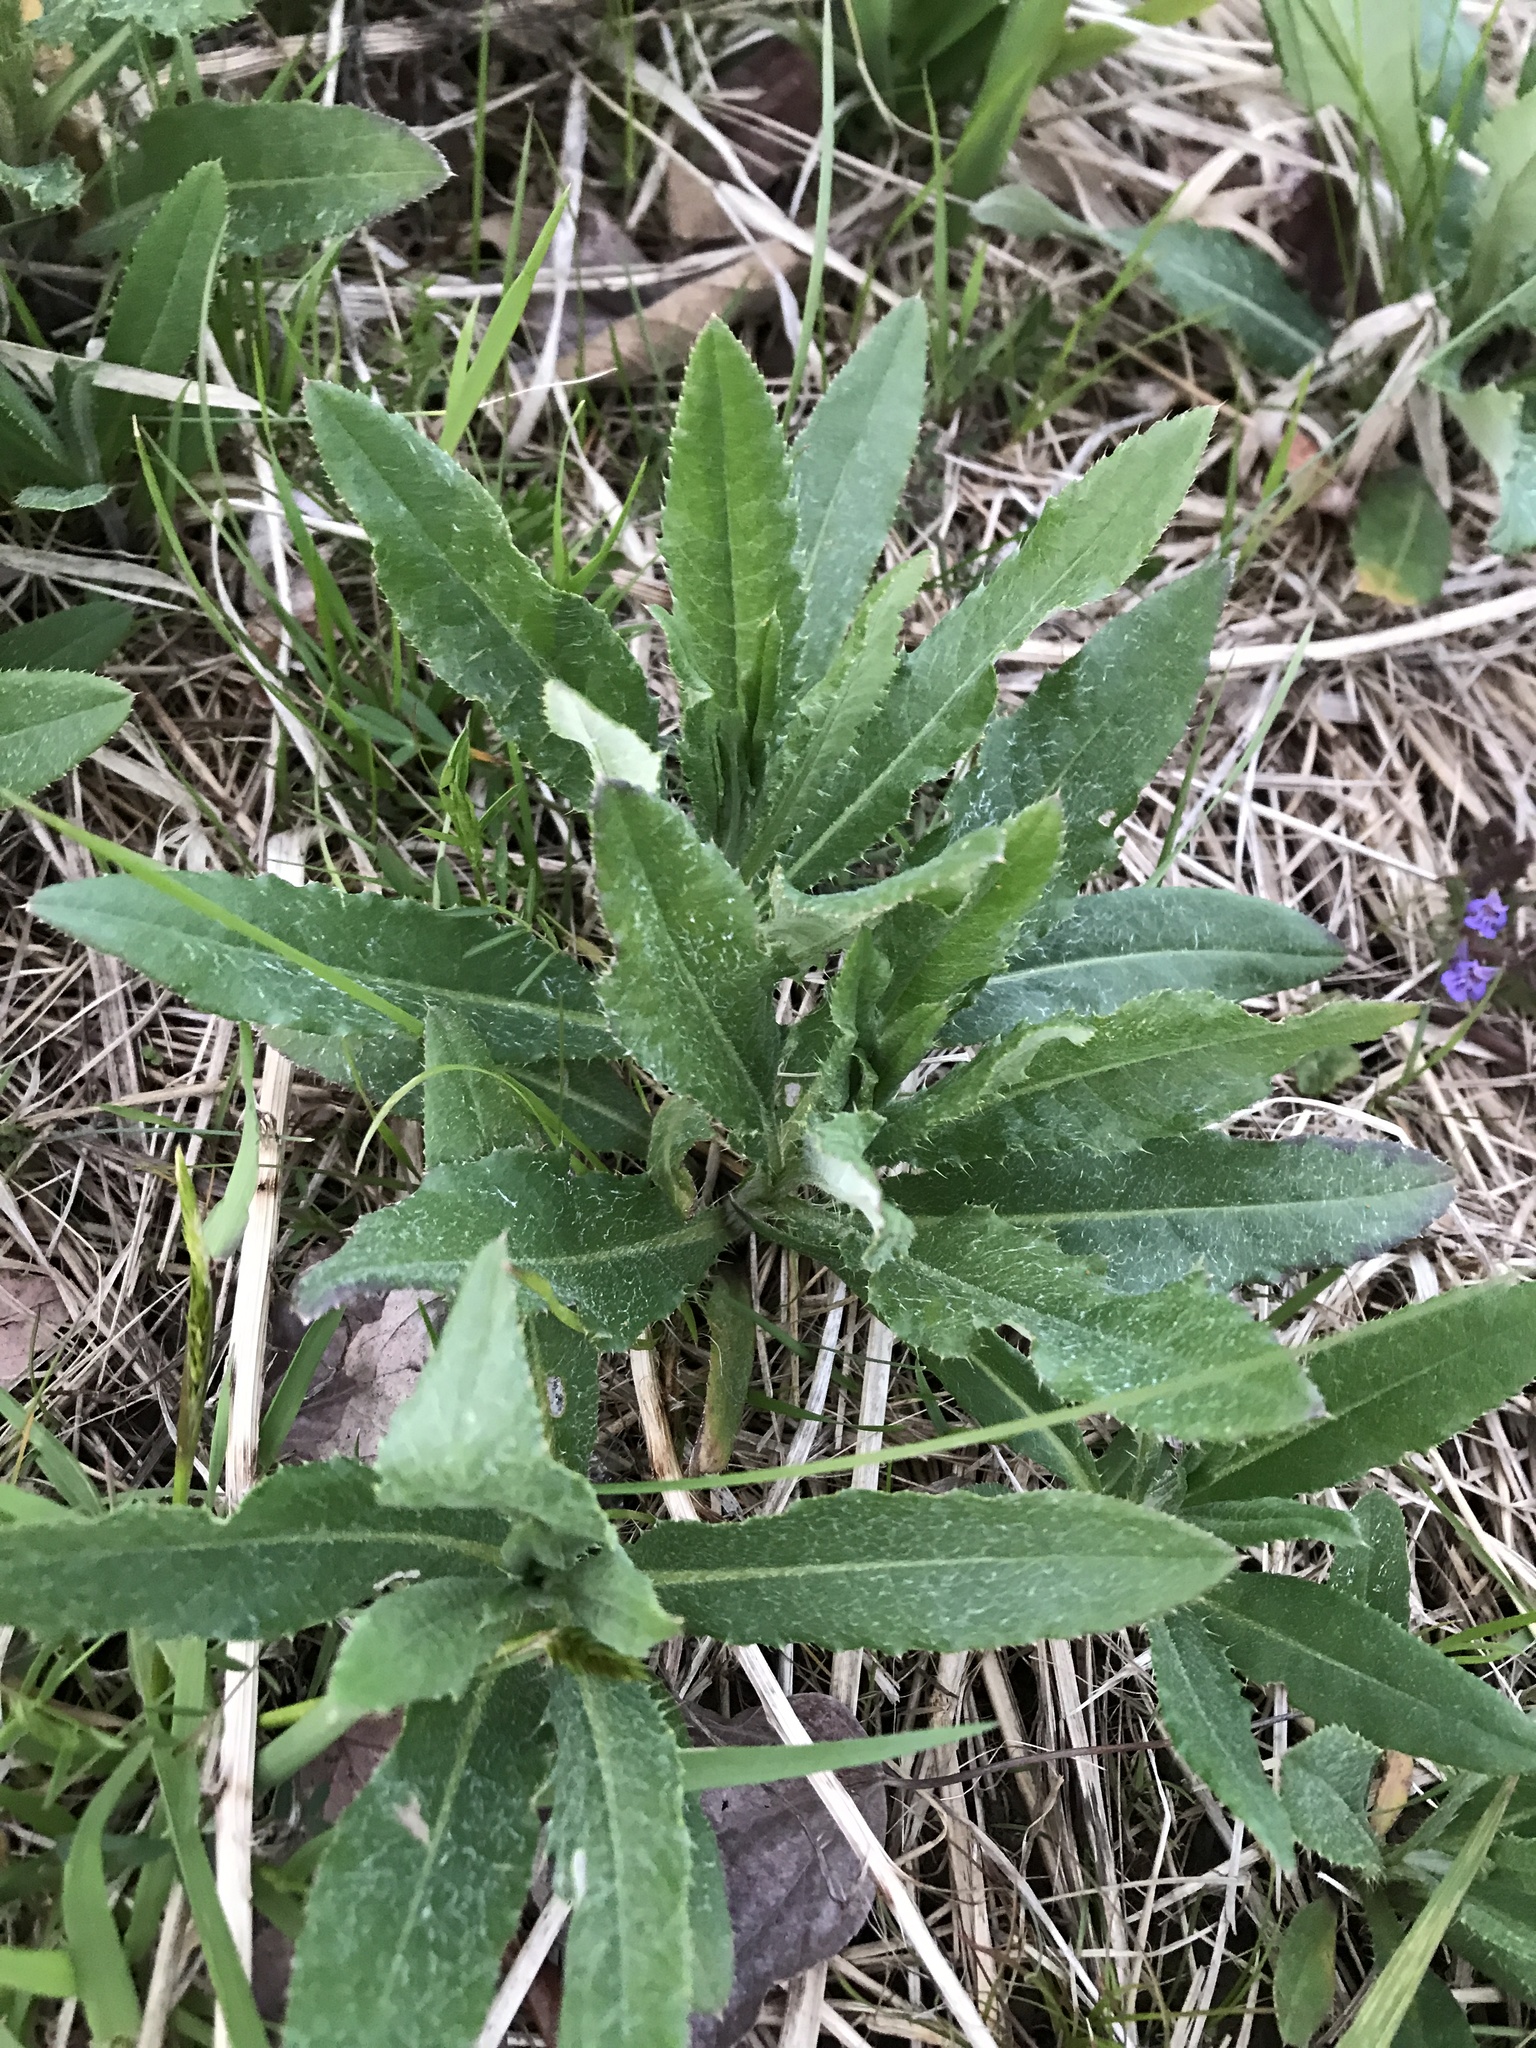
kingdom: Plantae
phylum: Tracheophyta
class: Magnoliopsida
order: Asterales
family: Asteraceae
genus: Cirsium
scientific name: Cirsium arvense
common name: Creeping thistle
